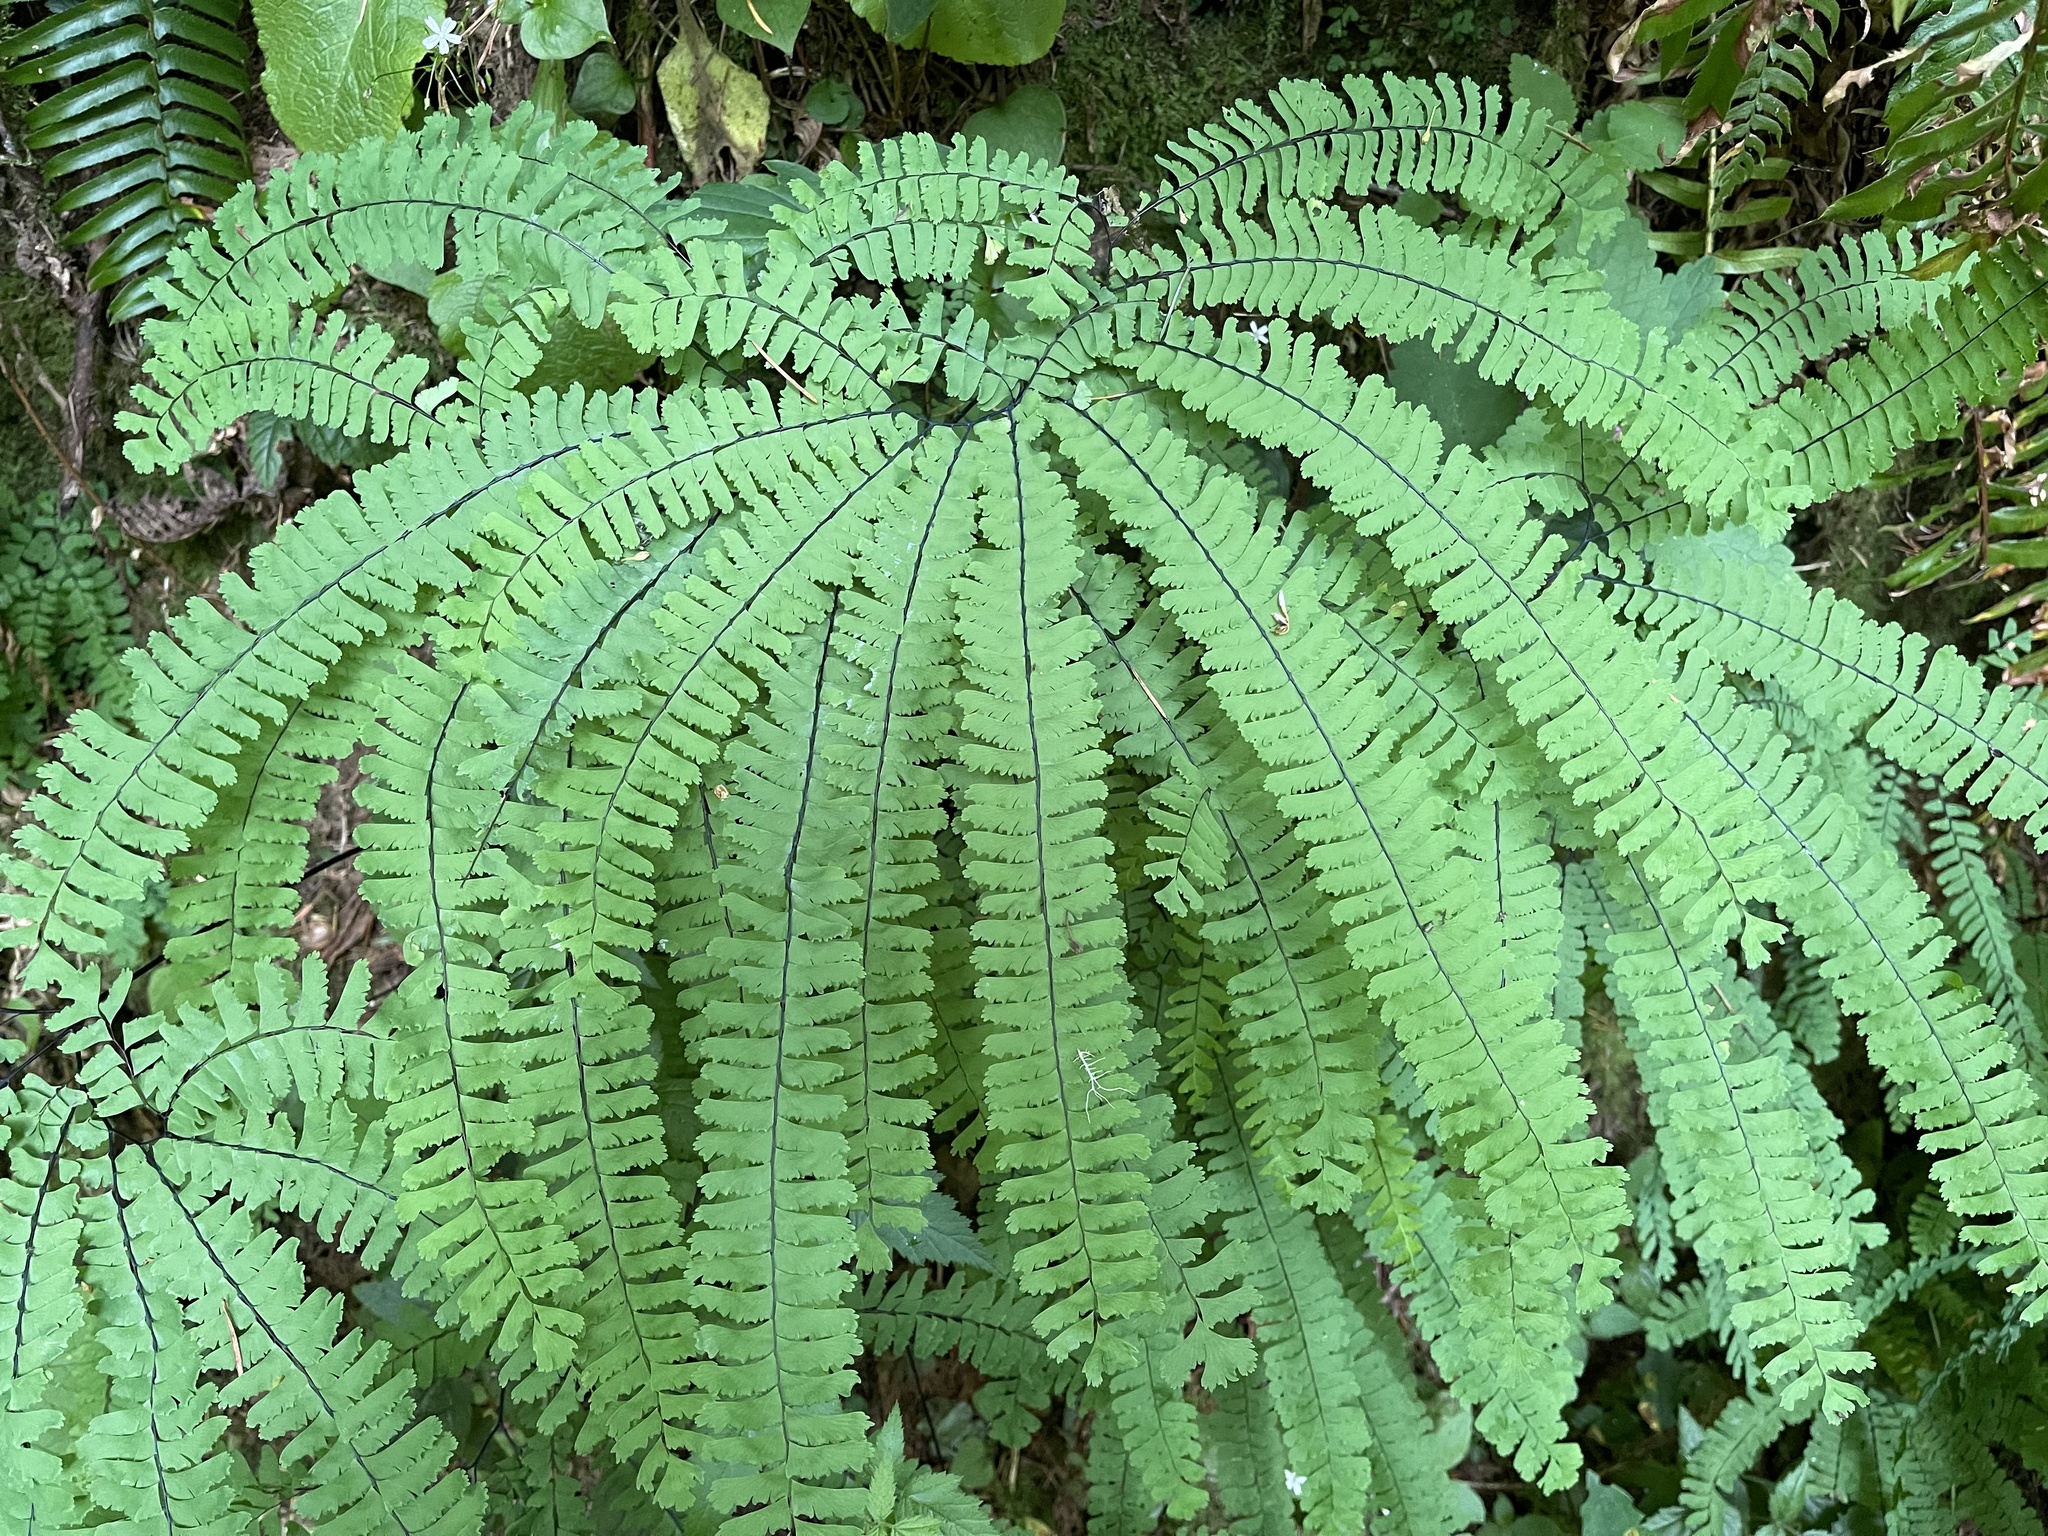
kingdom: Plantae
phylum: Tracheophyta
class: Polypodiopsida
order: Polypodiales
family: Pteridaceae
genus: Adiantum
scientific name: Adiantum aleuticum
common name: Aleutian maidenhair fern
